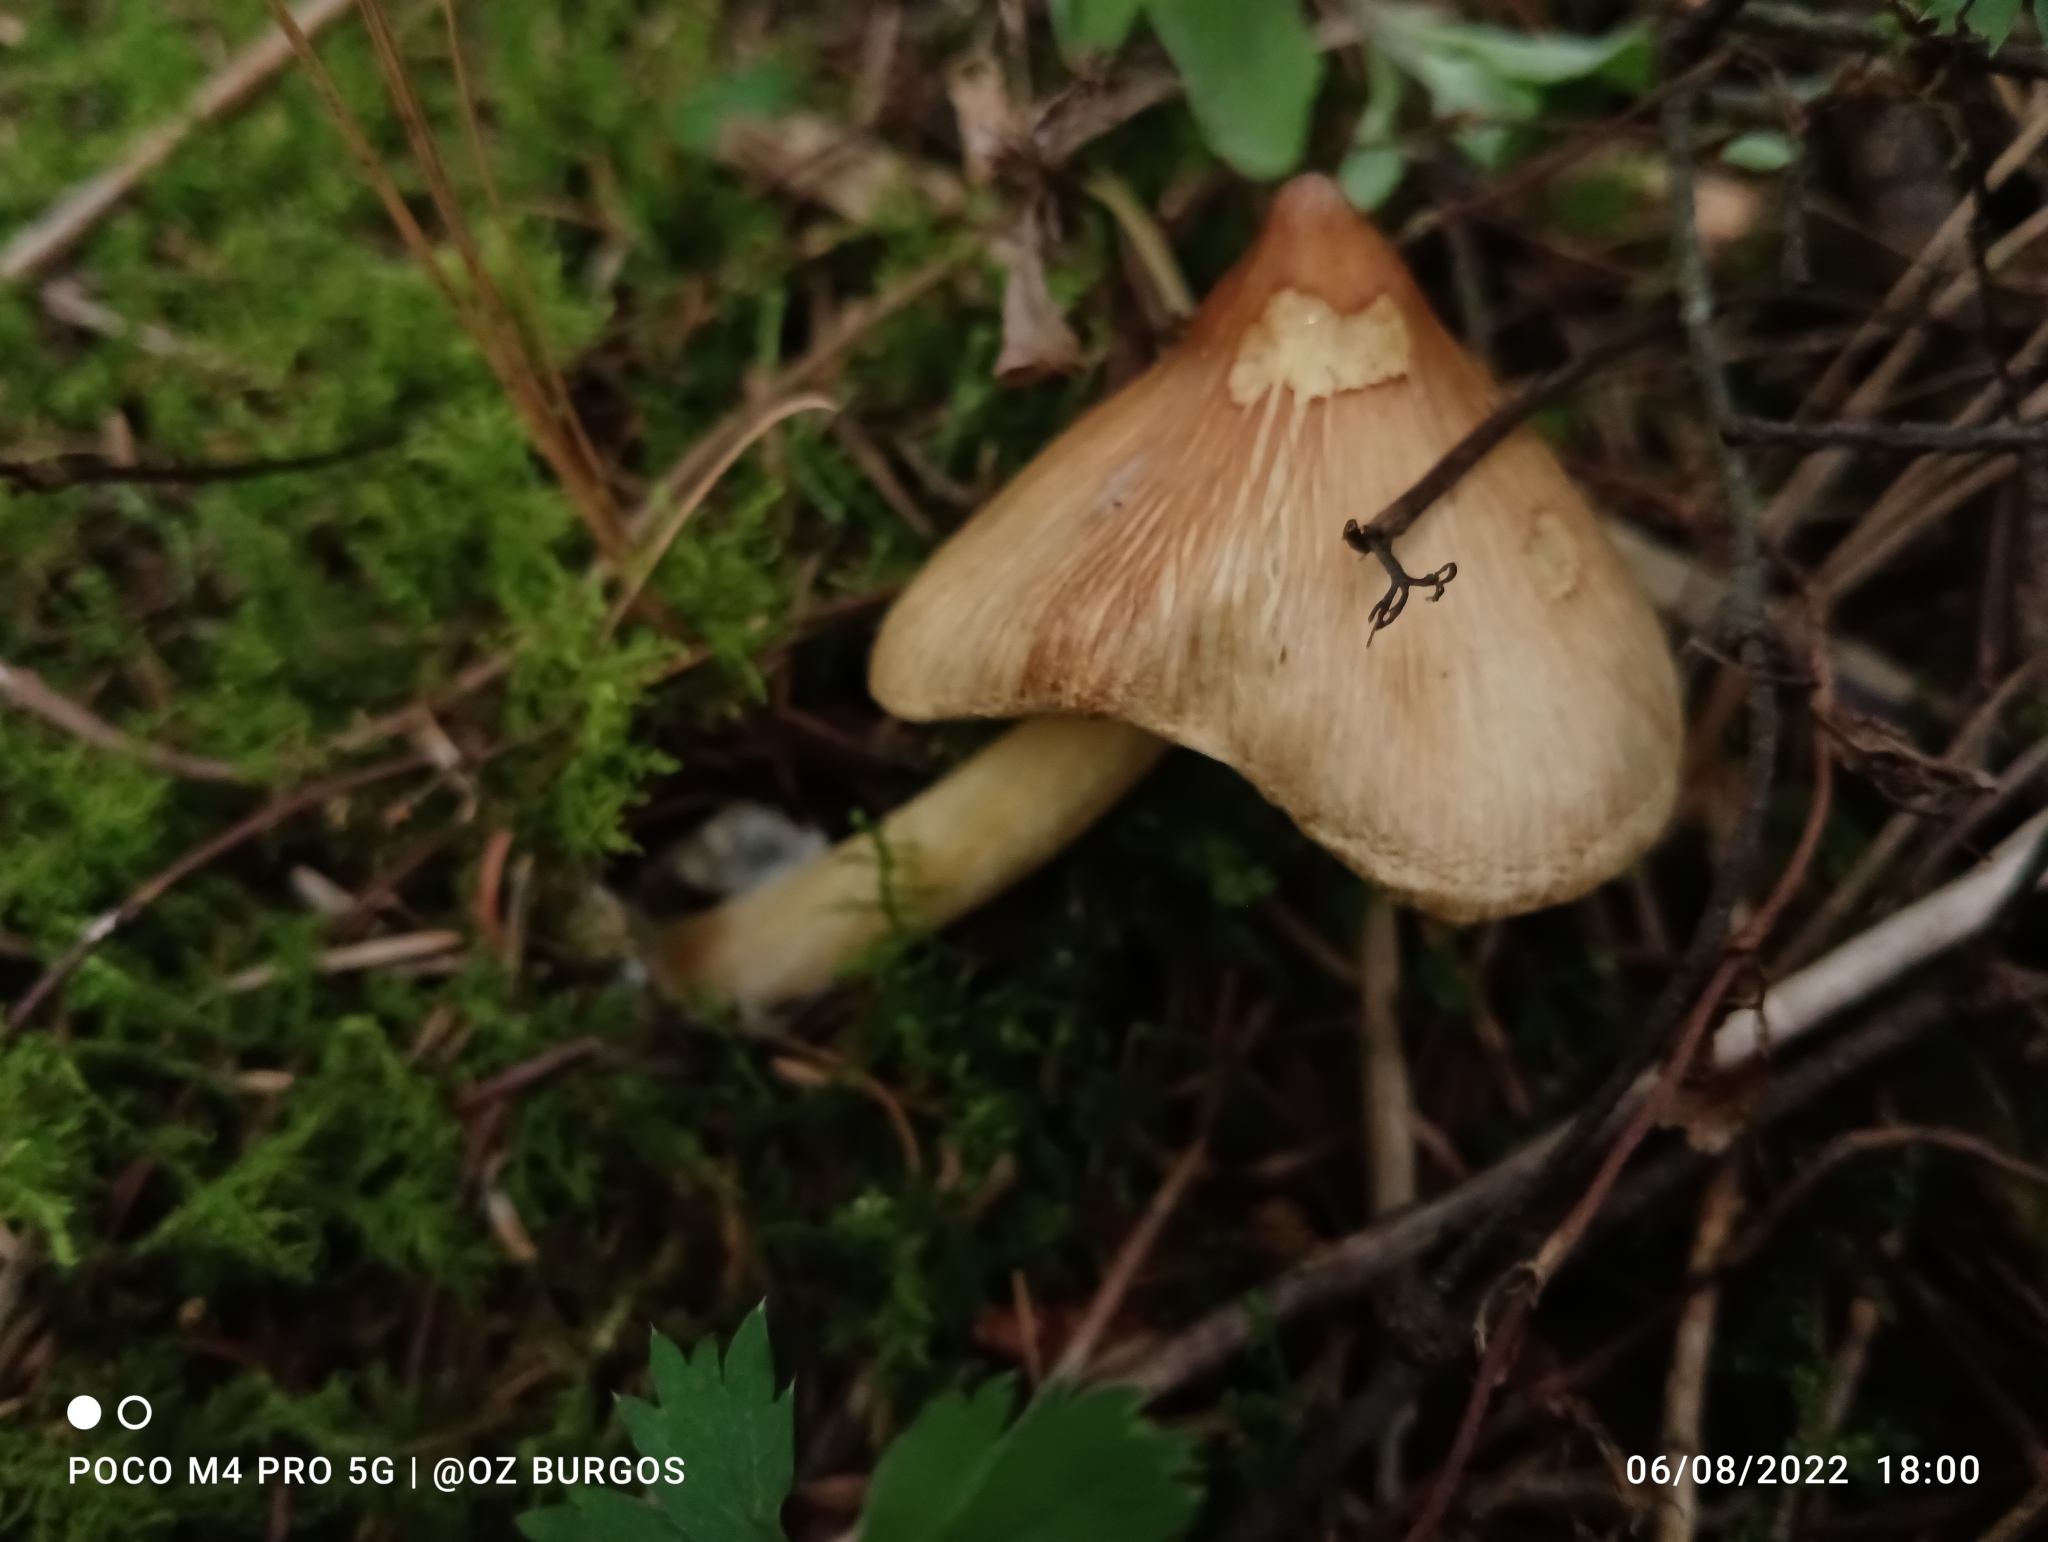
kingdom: Fungi
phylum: Basidiomycota
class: Agaricomycetes
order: Agaricales
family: Inocybaceae
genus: Pseudosperma
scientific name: Pseudosperma sororium
